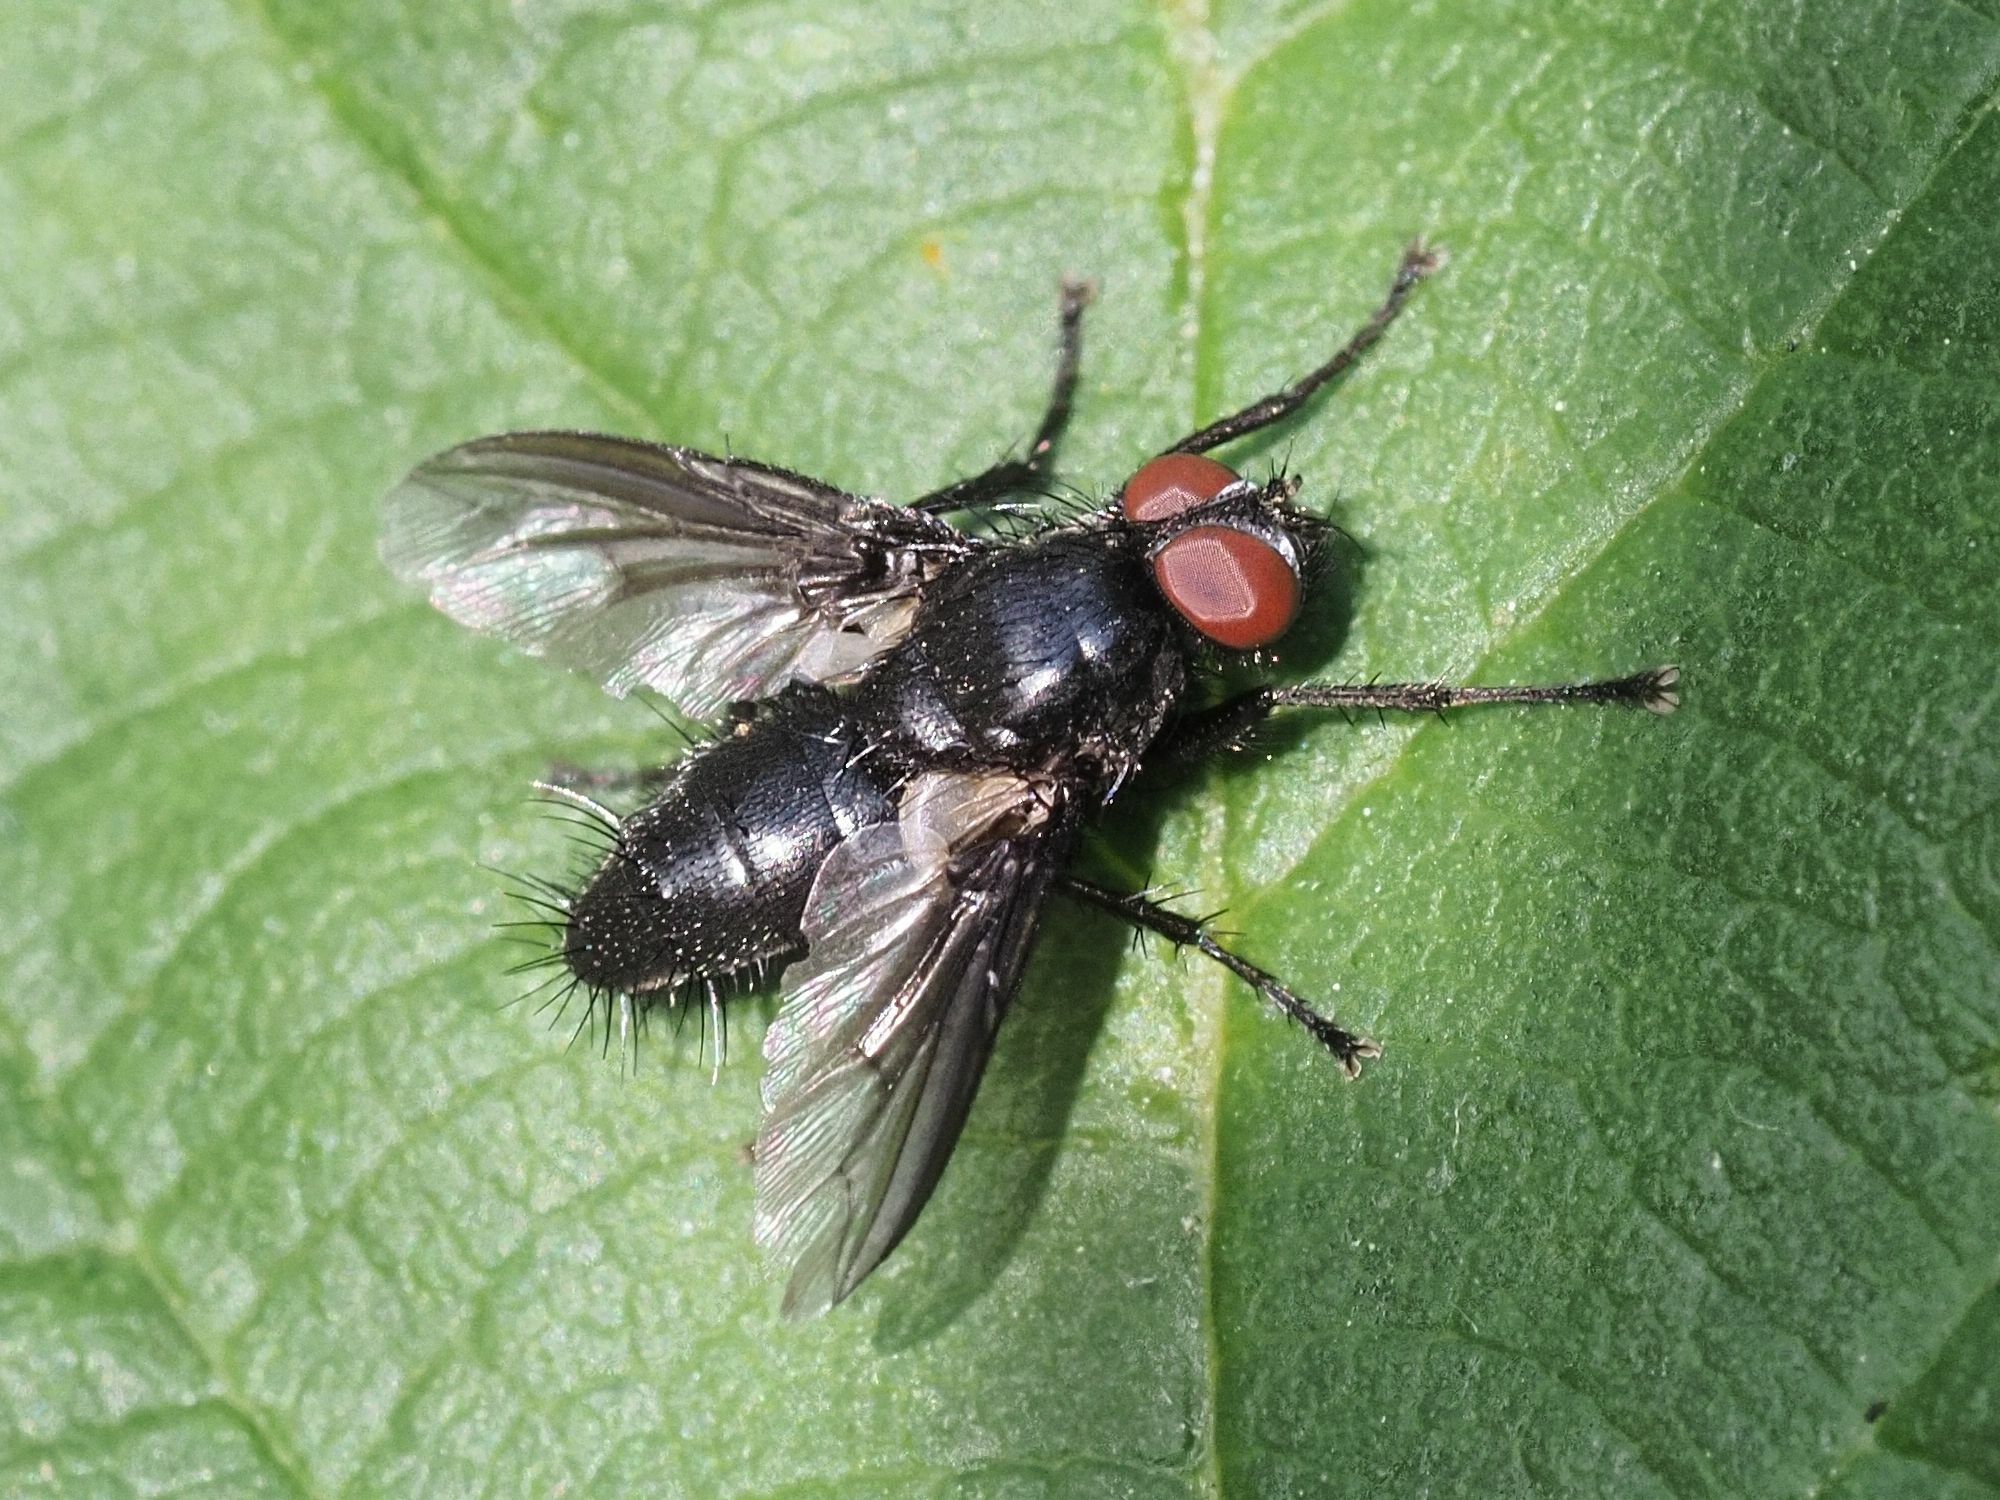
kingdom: Animalia
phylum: Arthropoda
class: Insecta
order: Diptera
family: Sarcophagidae
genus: Nyctia
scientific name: Nyctia halterata
